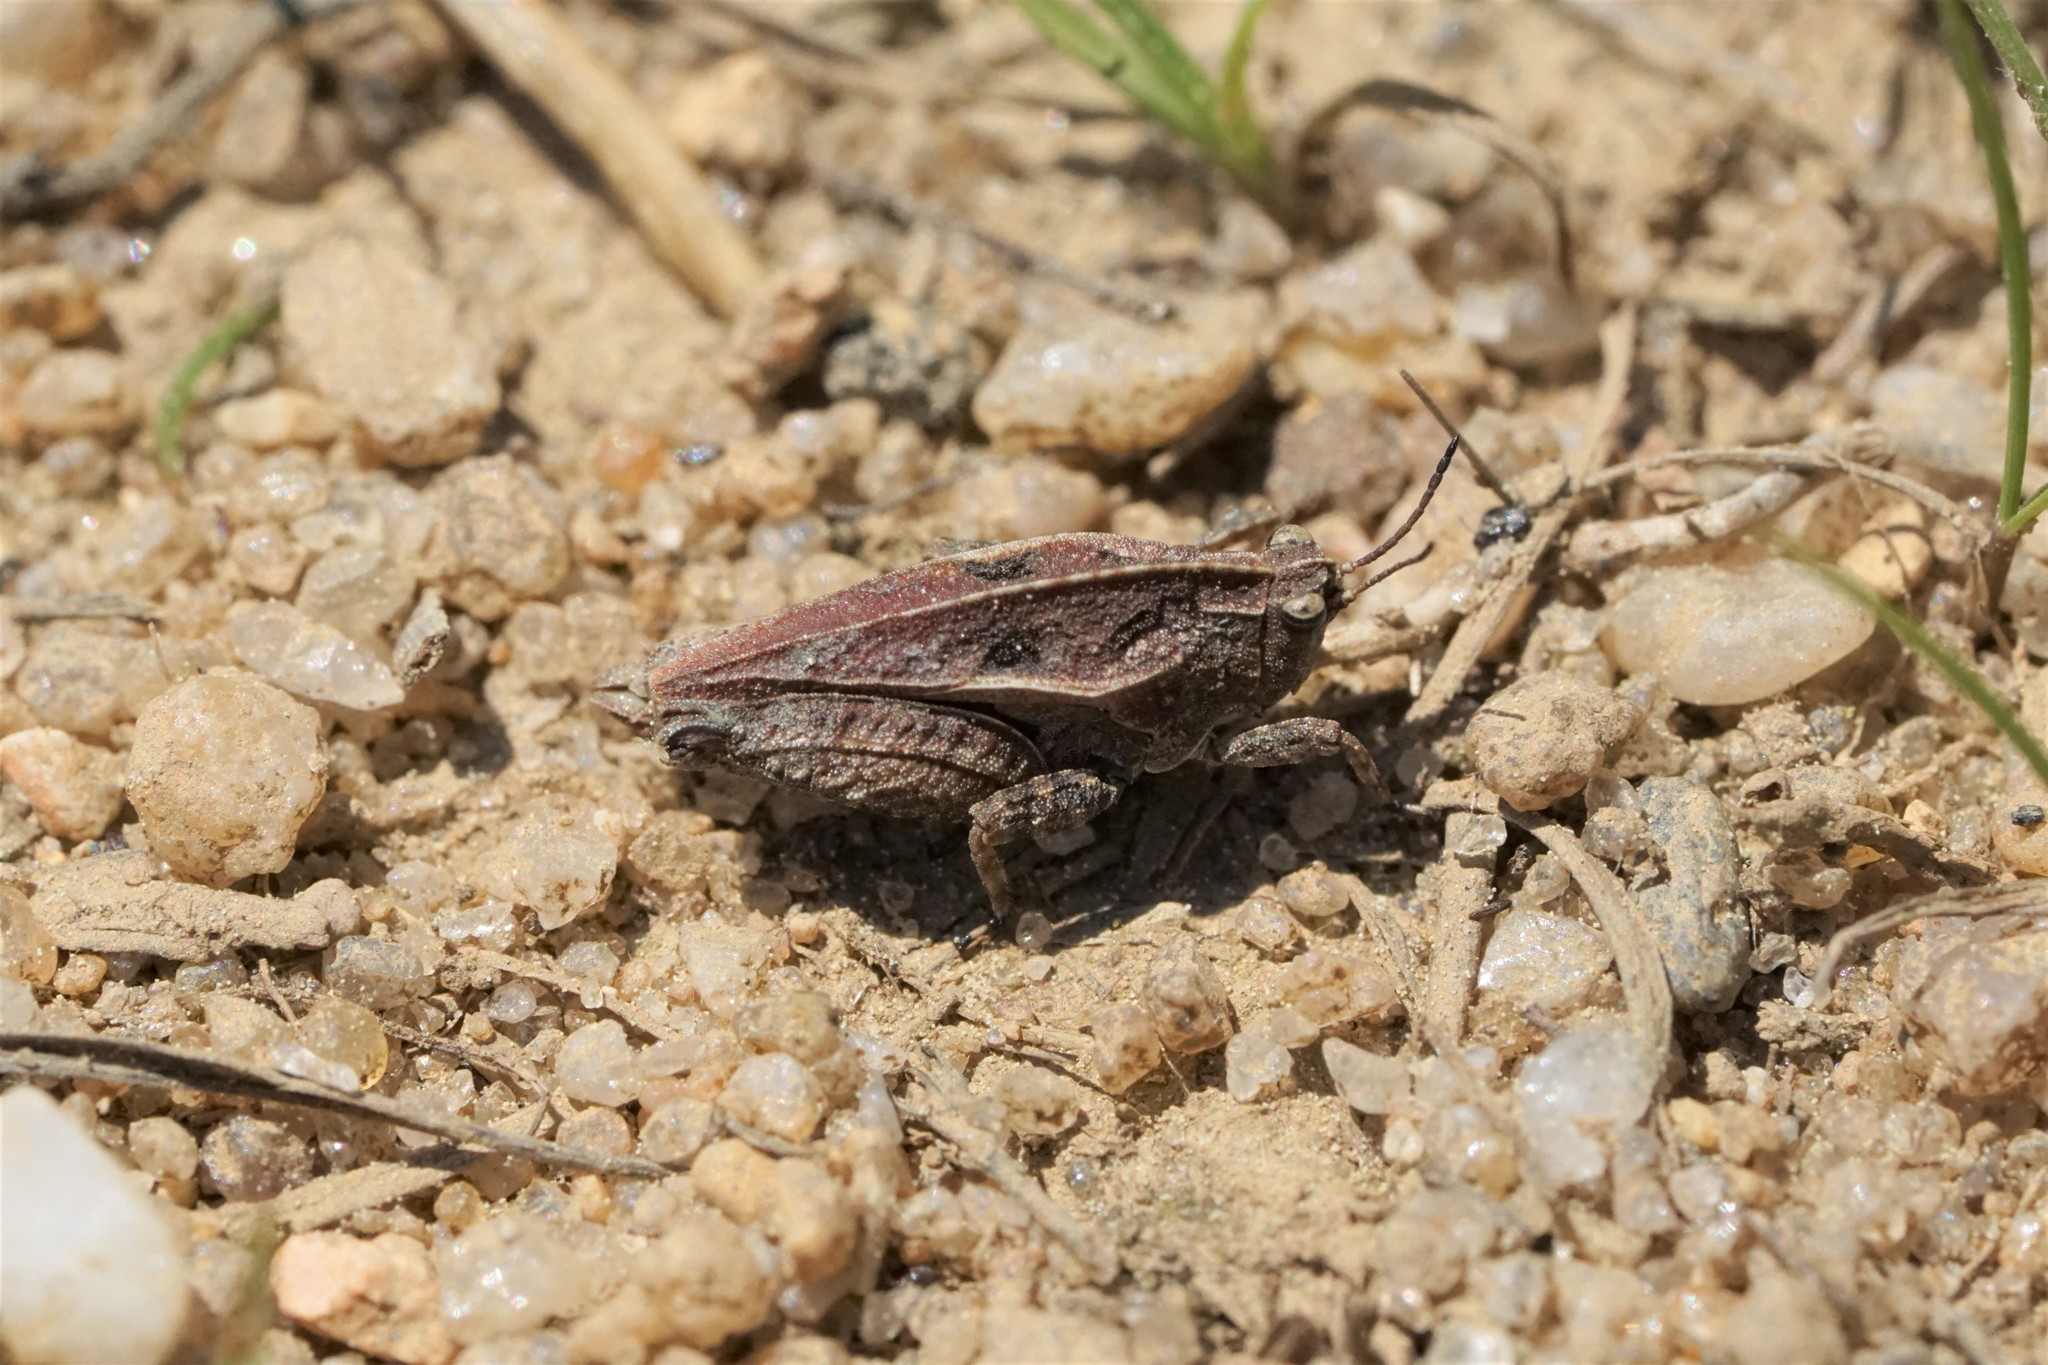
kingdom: Animalia
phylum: Arthropoda
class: Insecta
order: Orthoptera
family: Tetrigidae
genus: Nomotettix
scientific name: Nomotettix cristatus
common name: Crested grouse locust
